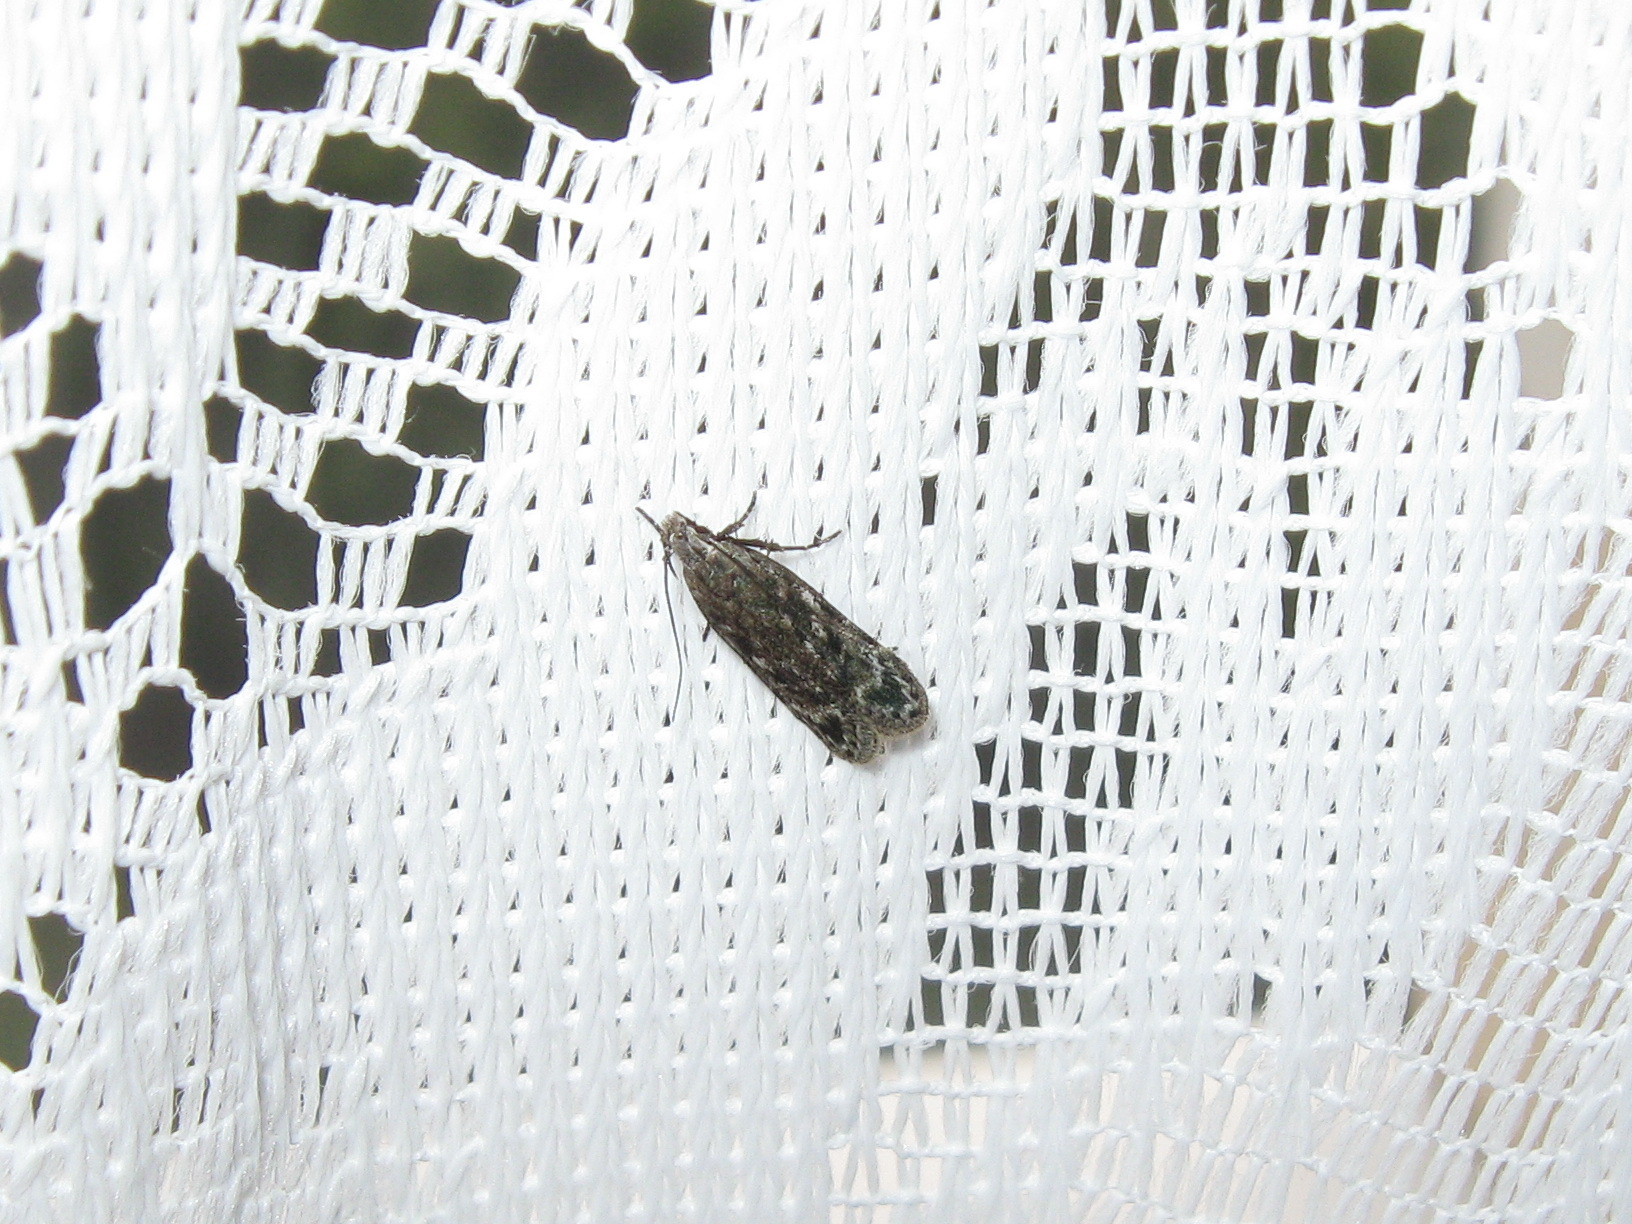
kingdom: Animalia
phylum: Arthropoda
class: Insecta
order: Lepidoptera
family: Gelechiidae
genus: Gelechia
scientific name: Gelechia cuneatella
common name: Long-winged groundling
